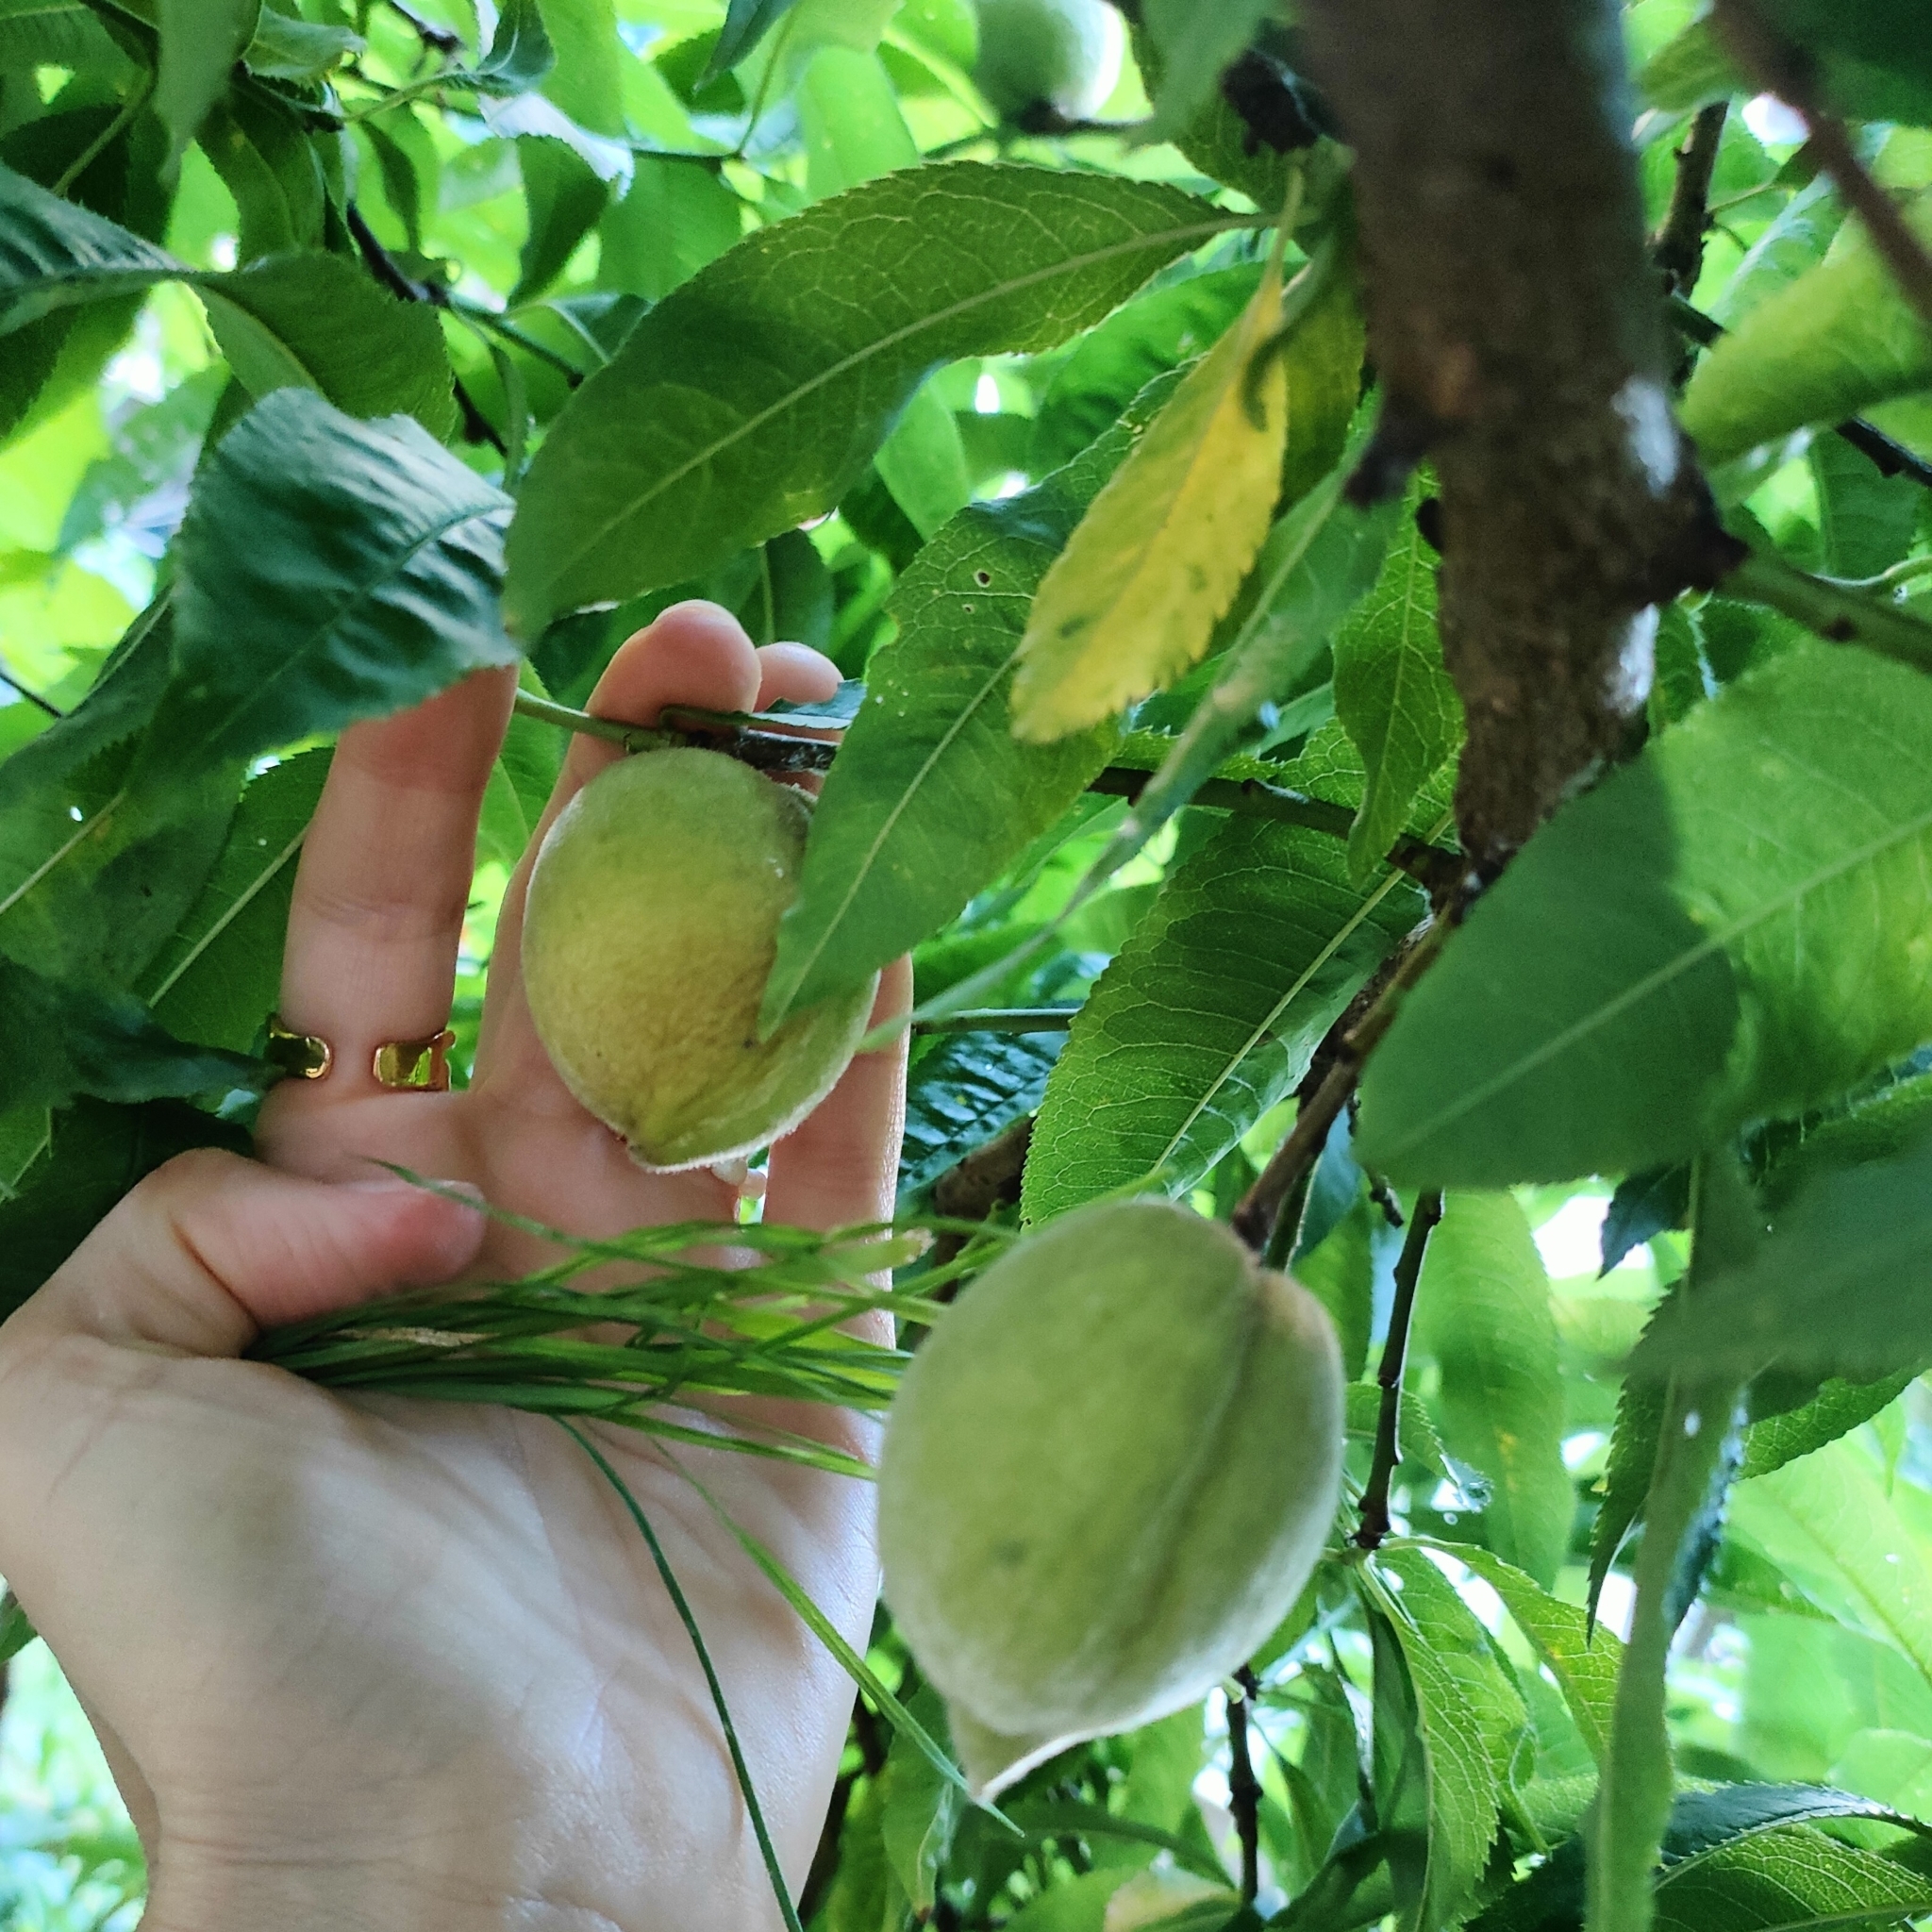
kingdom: Plantae
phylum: Tracheophyta
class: Magnoliopsida
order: Rosales
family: Rosaceae
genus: Prunus
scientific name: Prunus persica
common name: Peach
